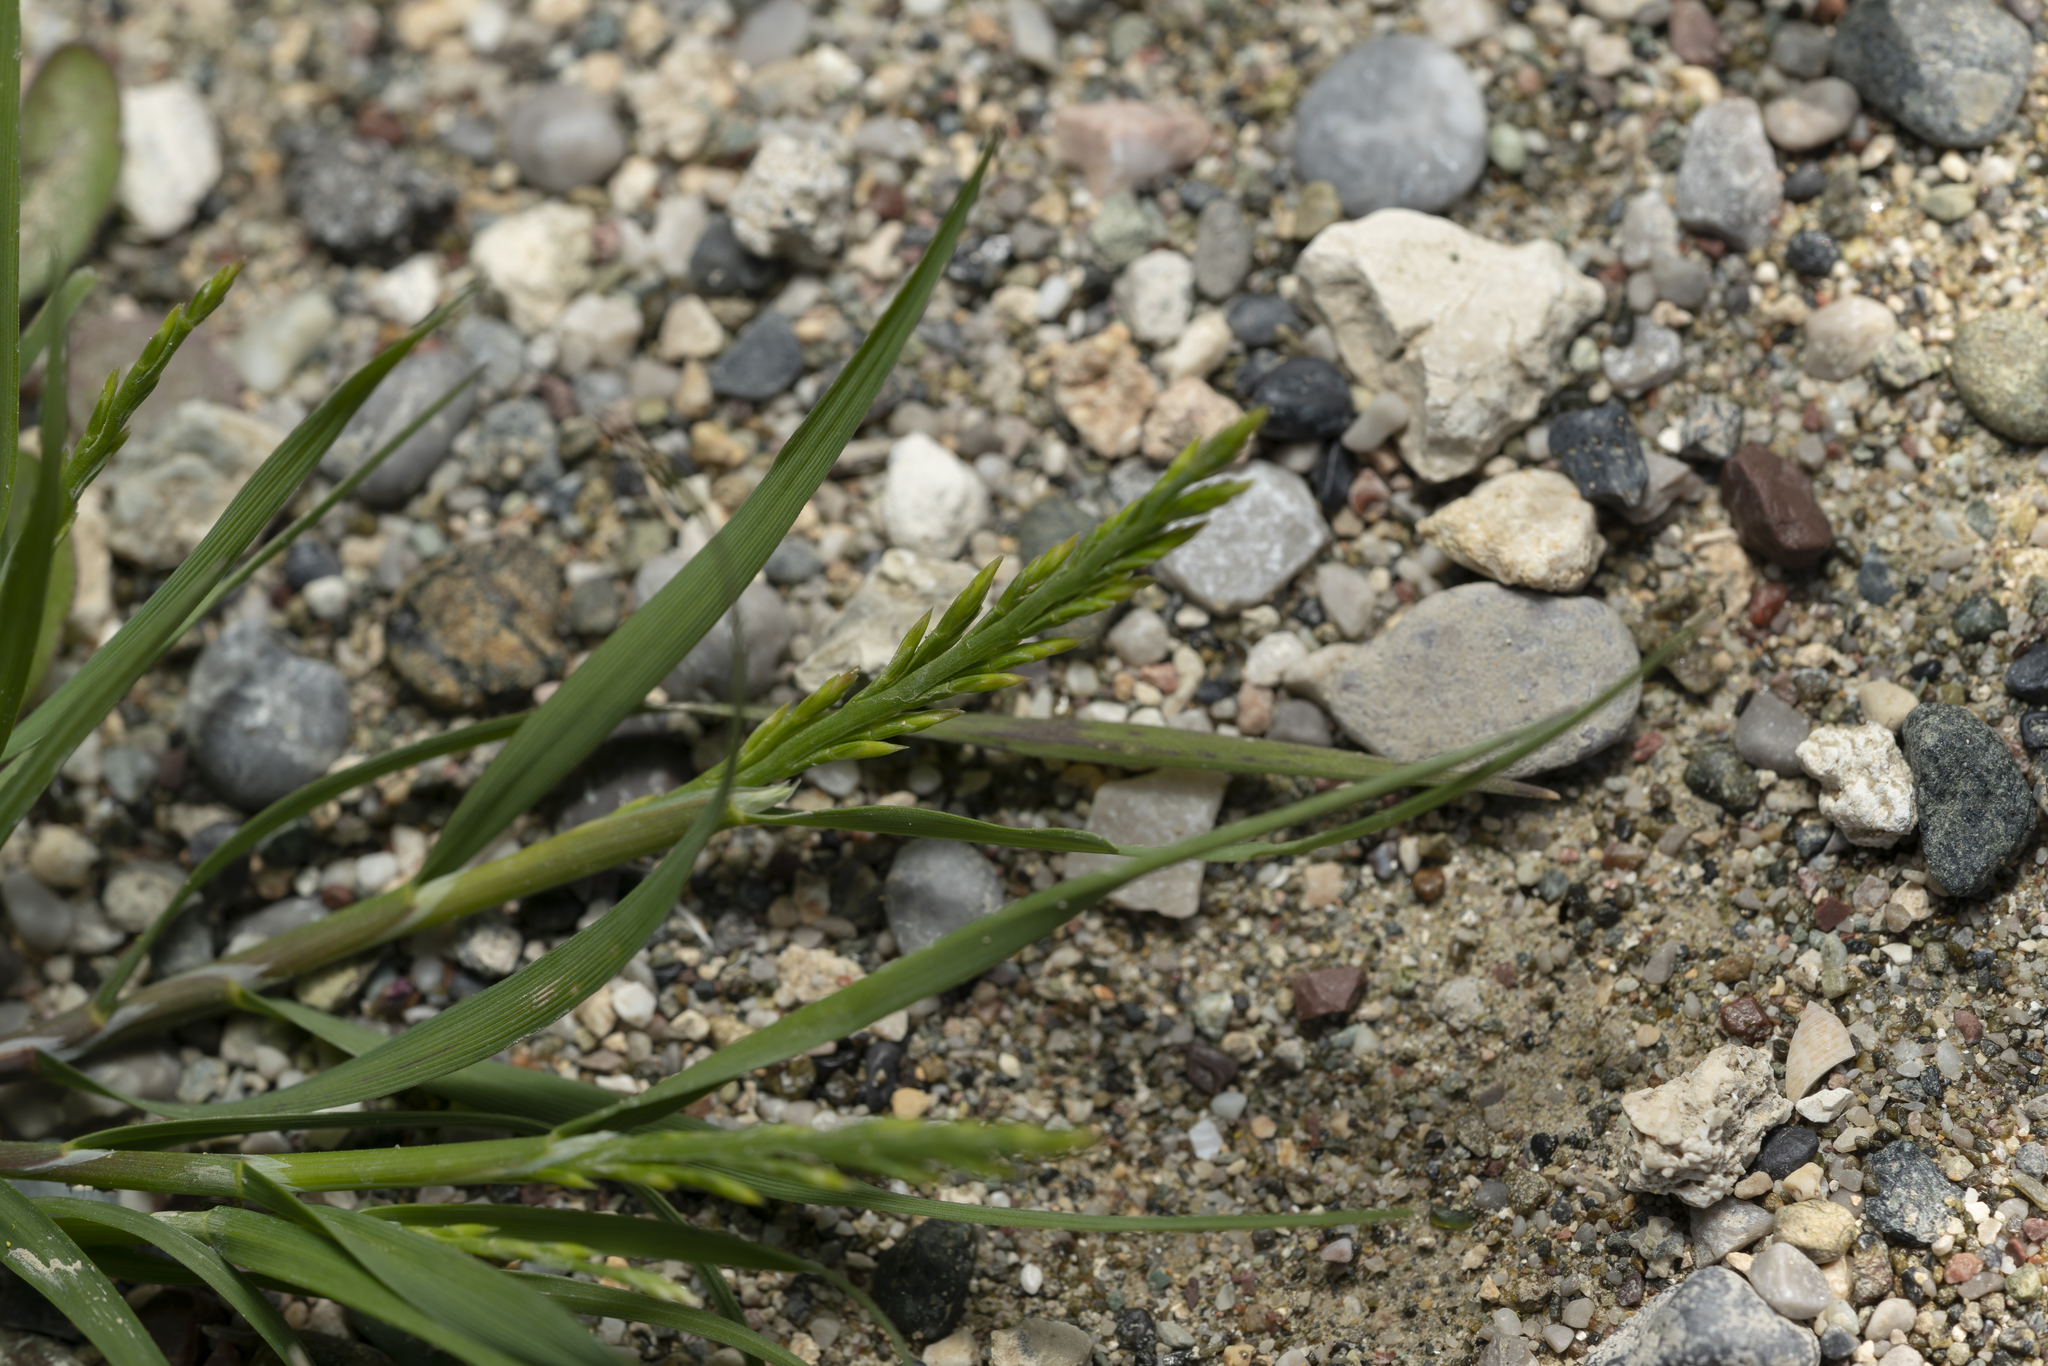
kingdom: Plantae
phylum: Tracheophyta
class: Liliopsida
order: Poales
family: Poaceae
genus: Catapodium
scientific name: Catapodium marinum
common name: Sea fern-grass
